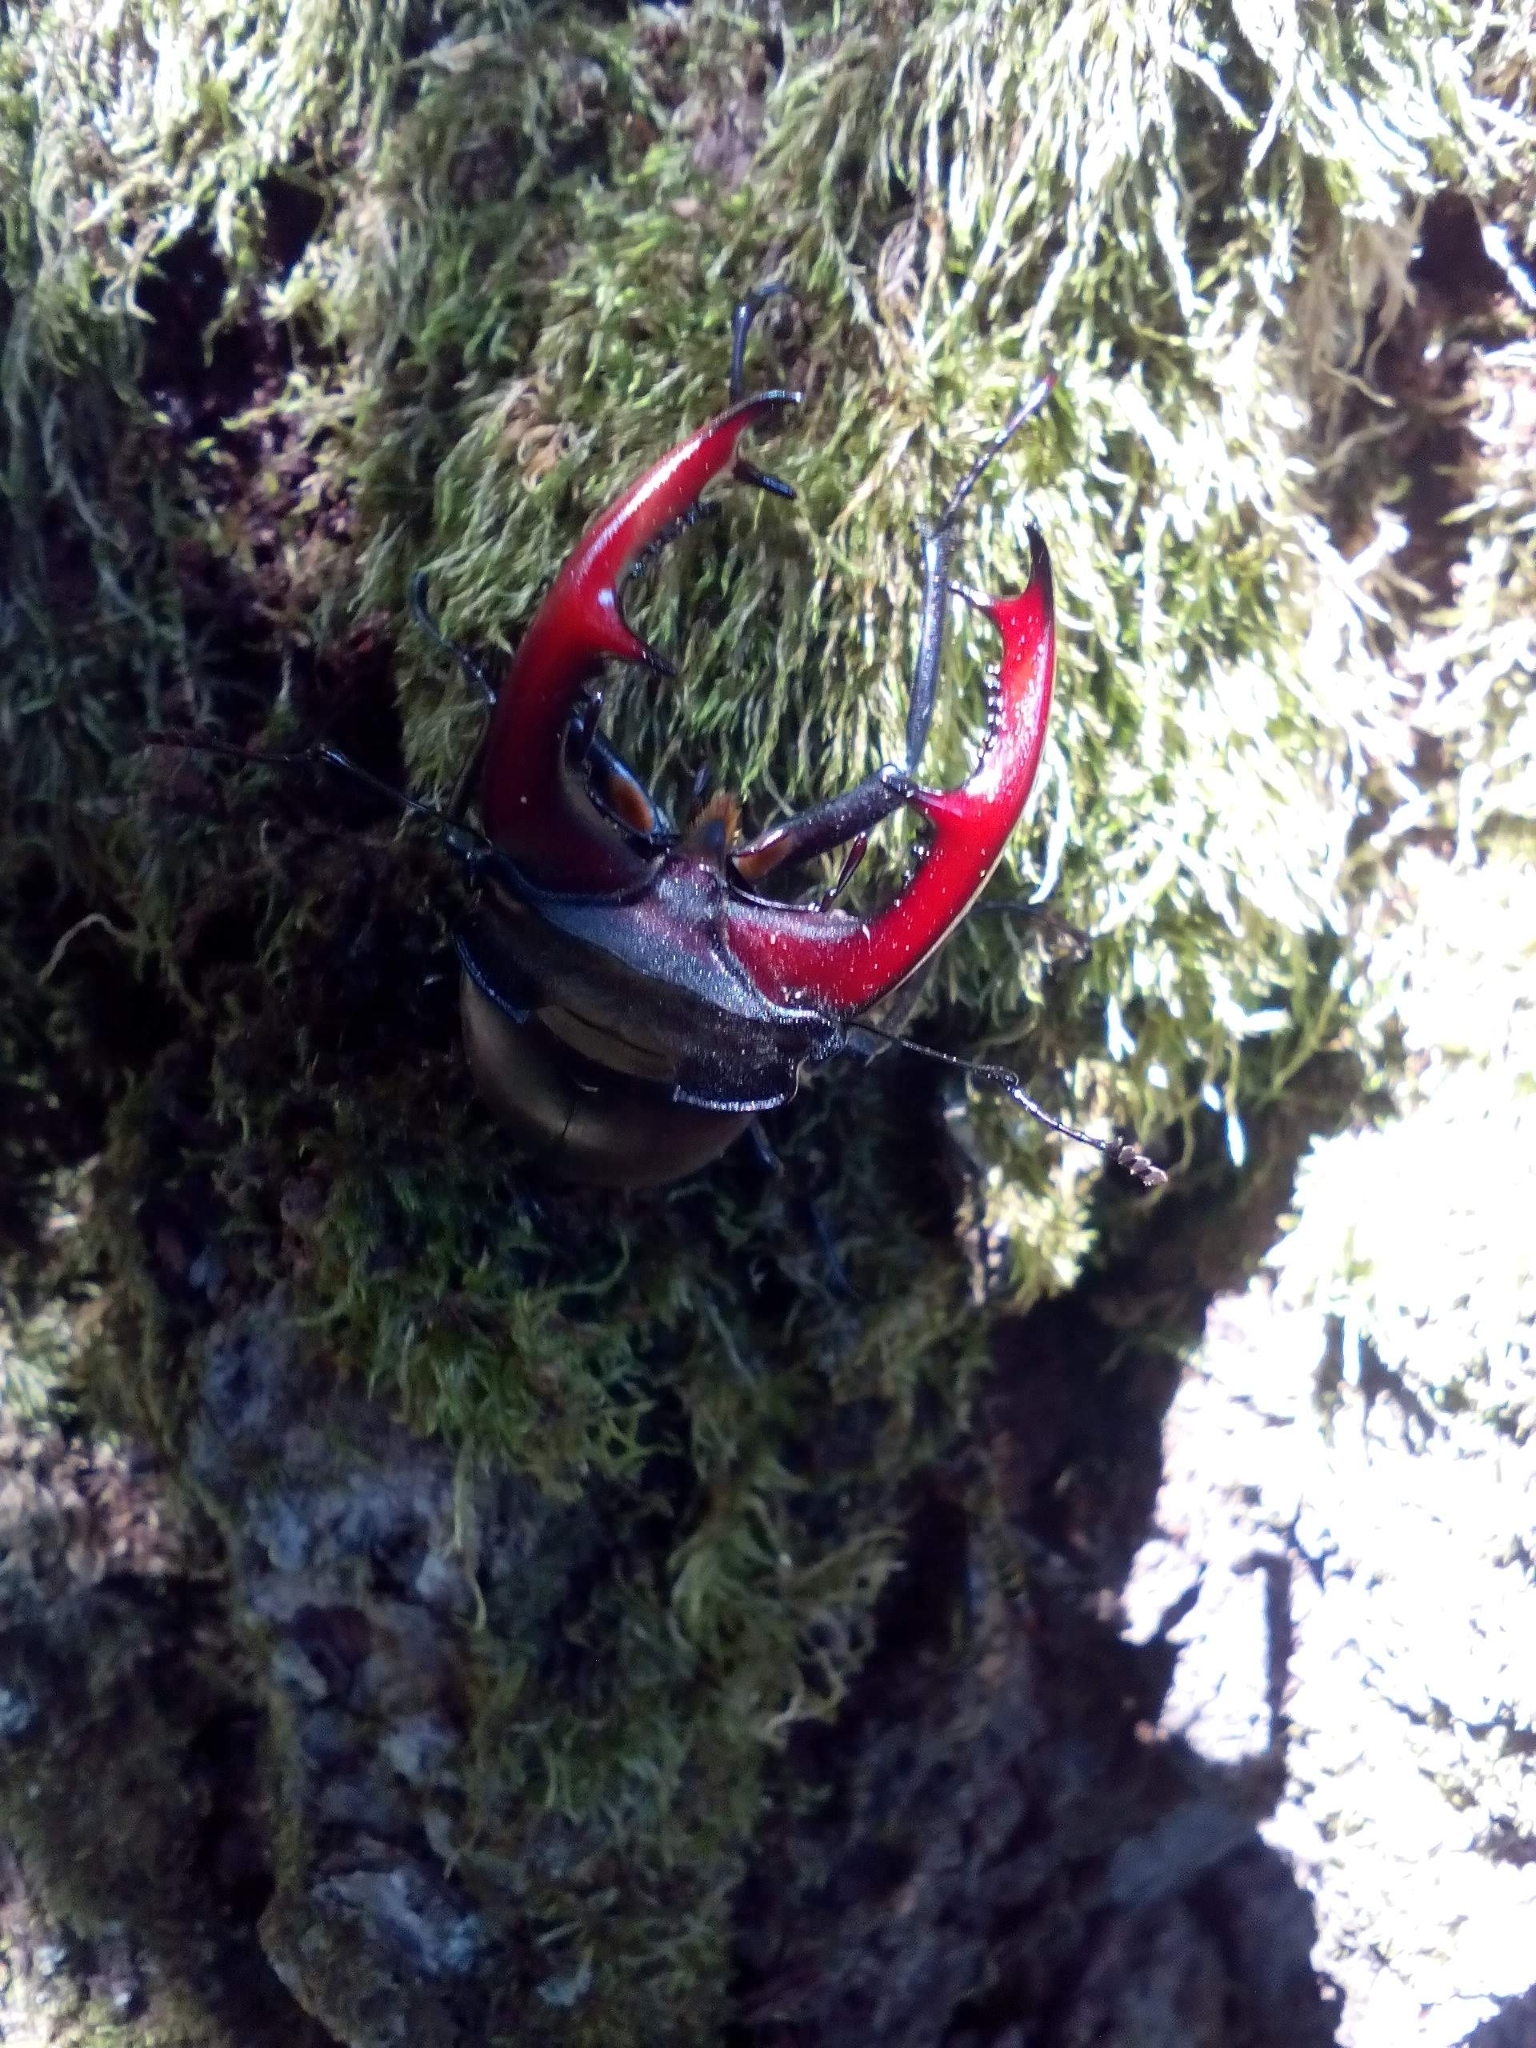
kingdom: Animalia
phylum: Arthropoda
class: Insecta
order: Coleoptera
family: Lucanidae
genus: Lucanus
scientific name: Lucanus cervus
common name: Stag beetle
